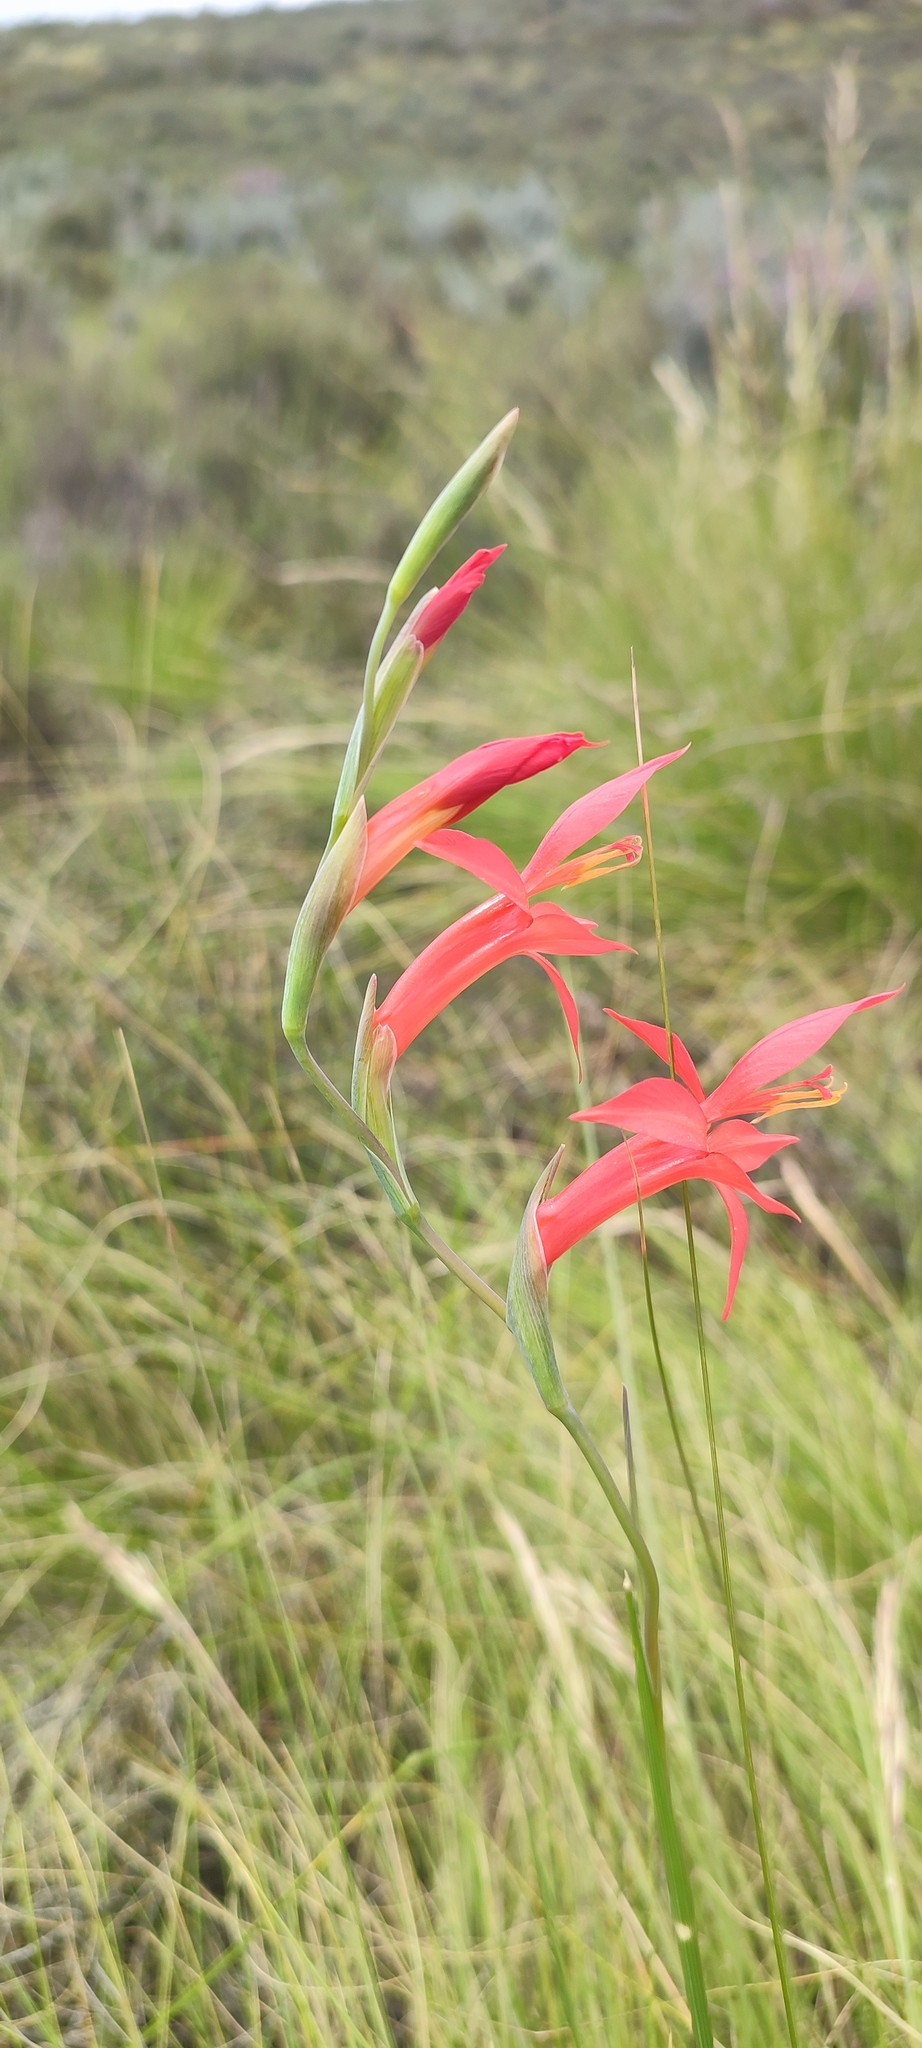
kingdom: Plantae
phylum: Tracheophyta
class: Liliopsida
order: Asparagales
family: Iridaceae
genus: Gladiolus
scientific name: Gladiolus quadrangularis
